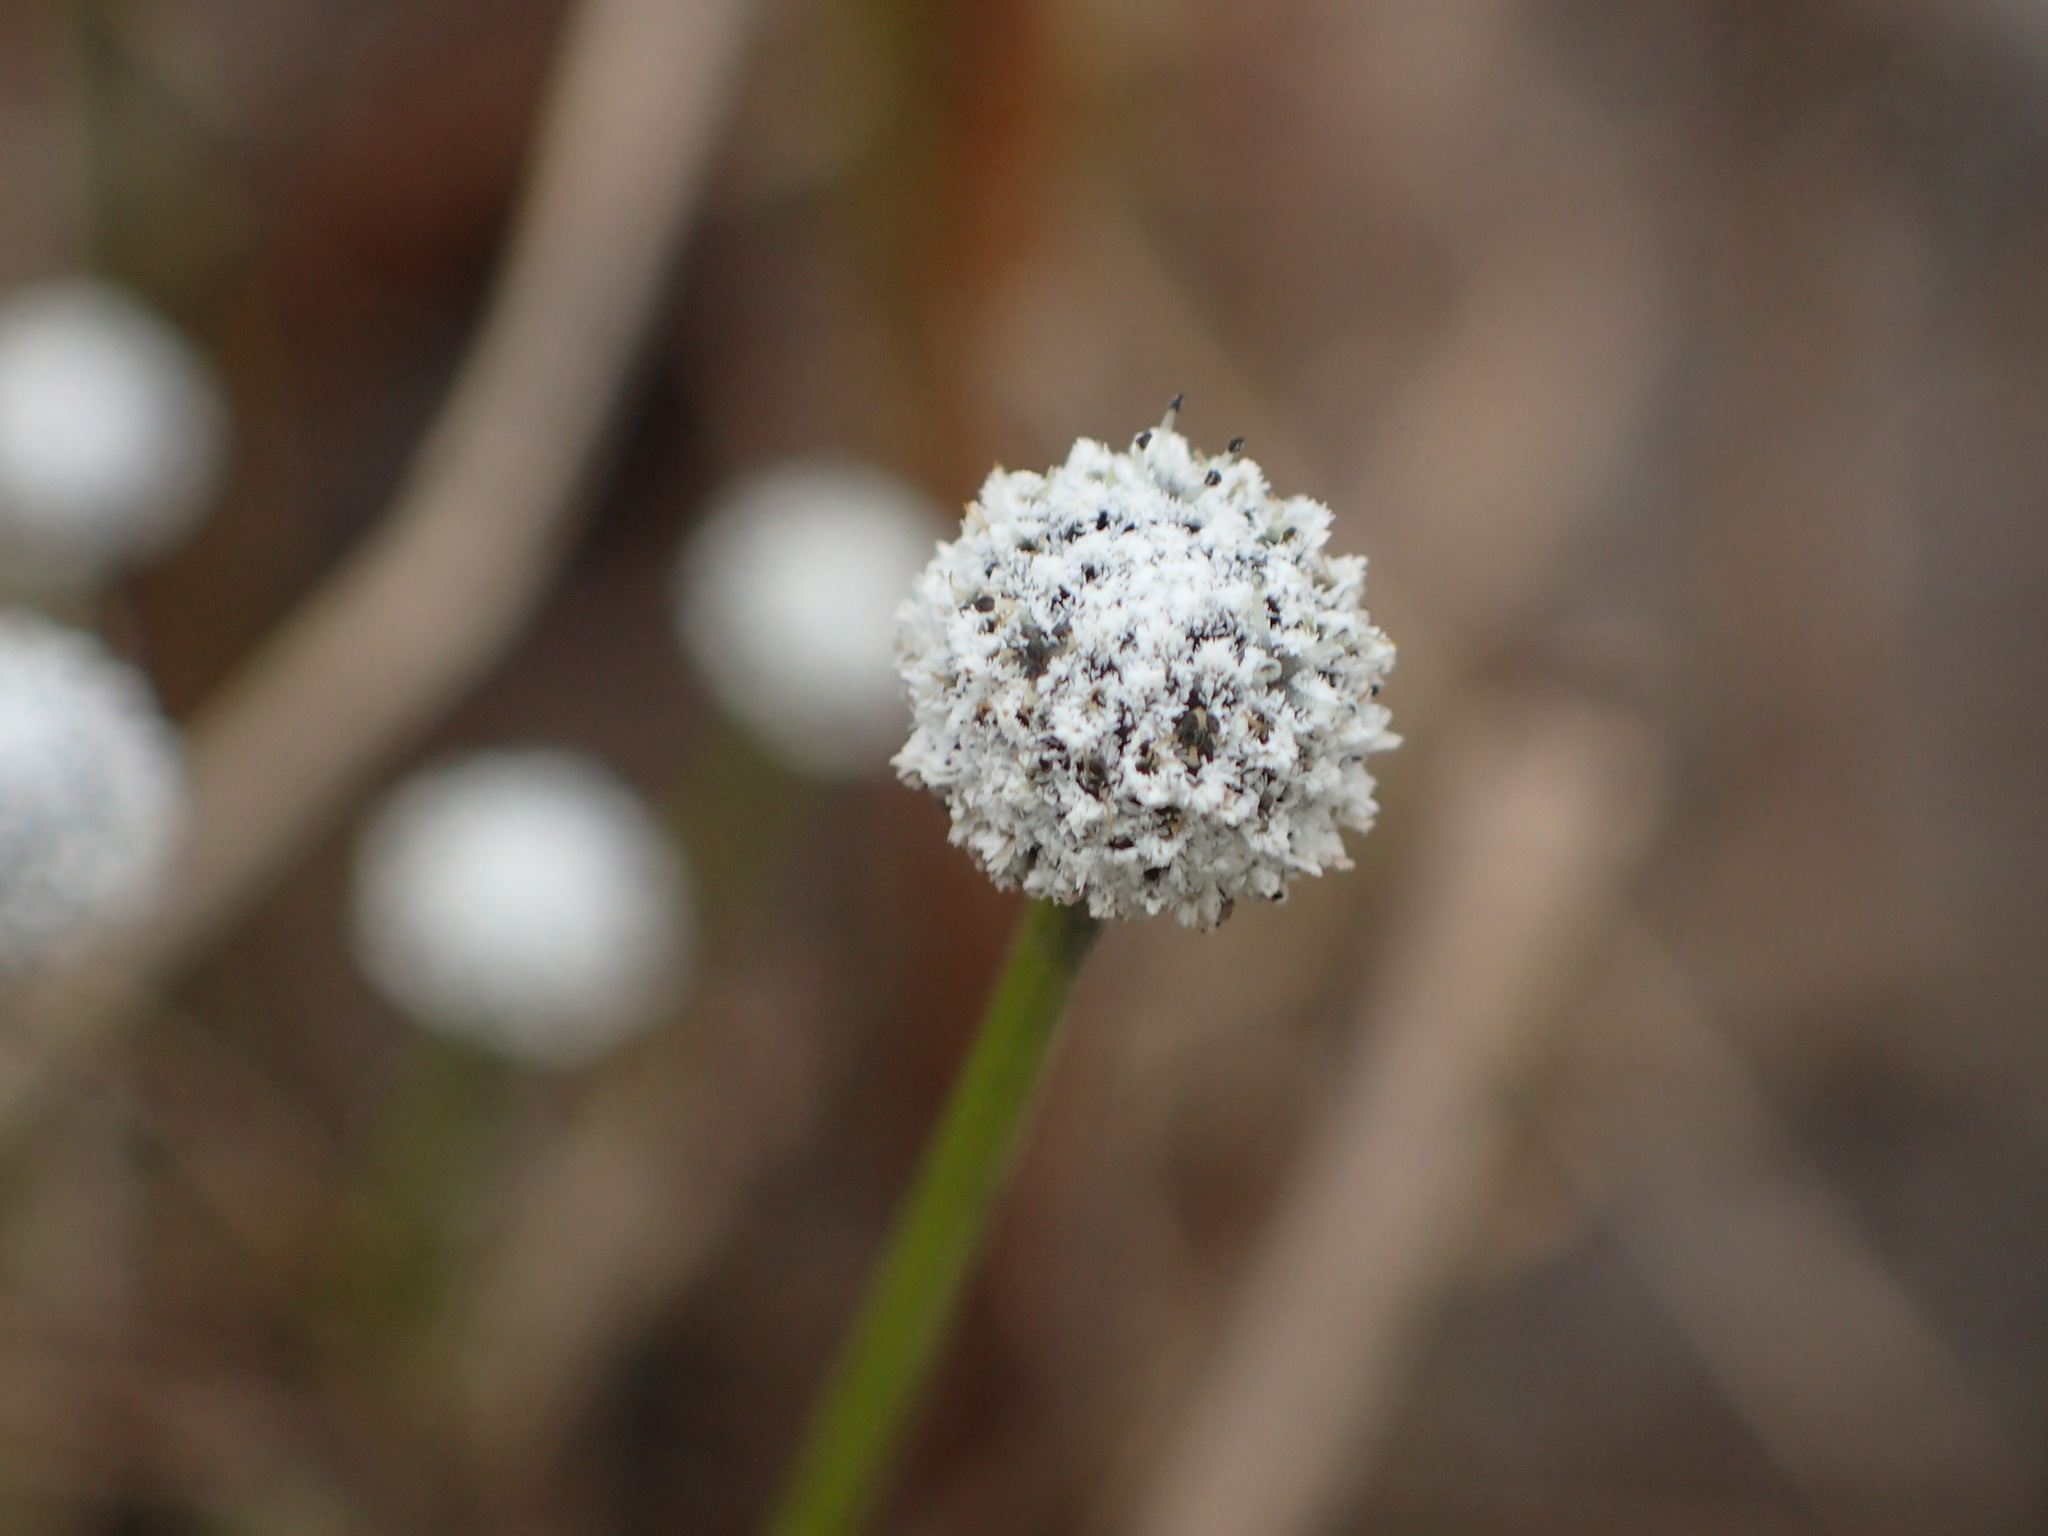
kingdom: Plantae
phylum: Tracheophyta
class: Liliopsida
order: Poales
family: Eriocaulaceae
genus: Eriocaulon
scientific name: Eriocaulon aquaticum
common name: Pipewort
